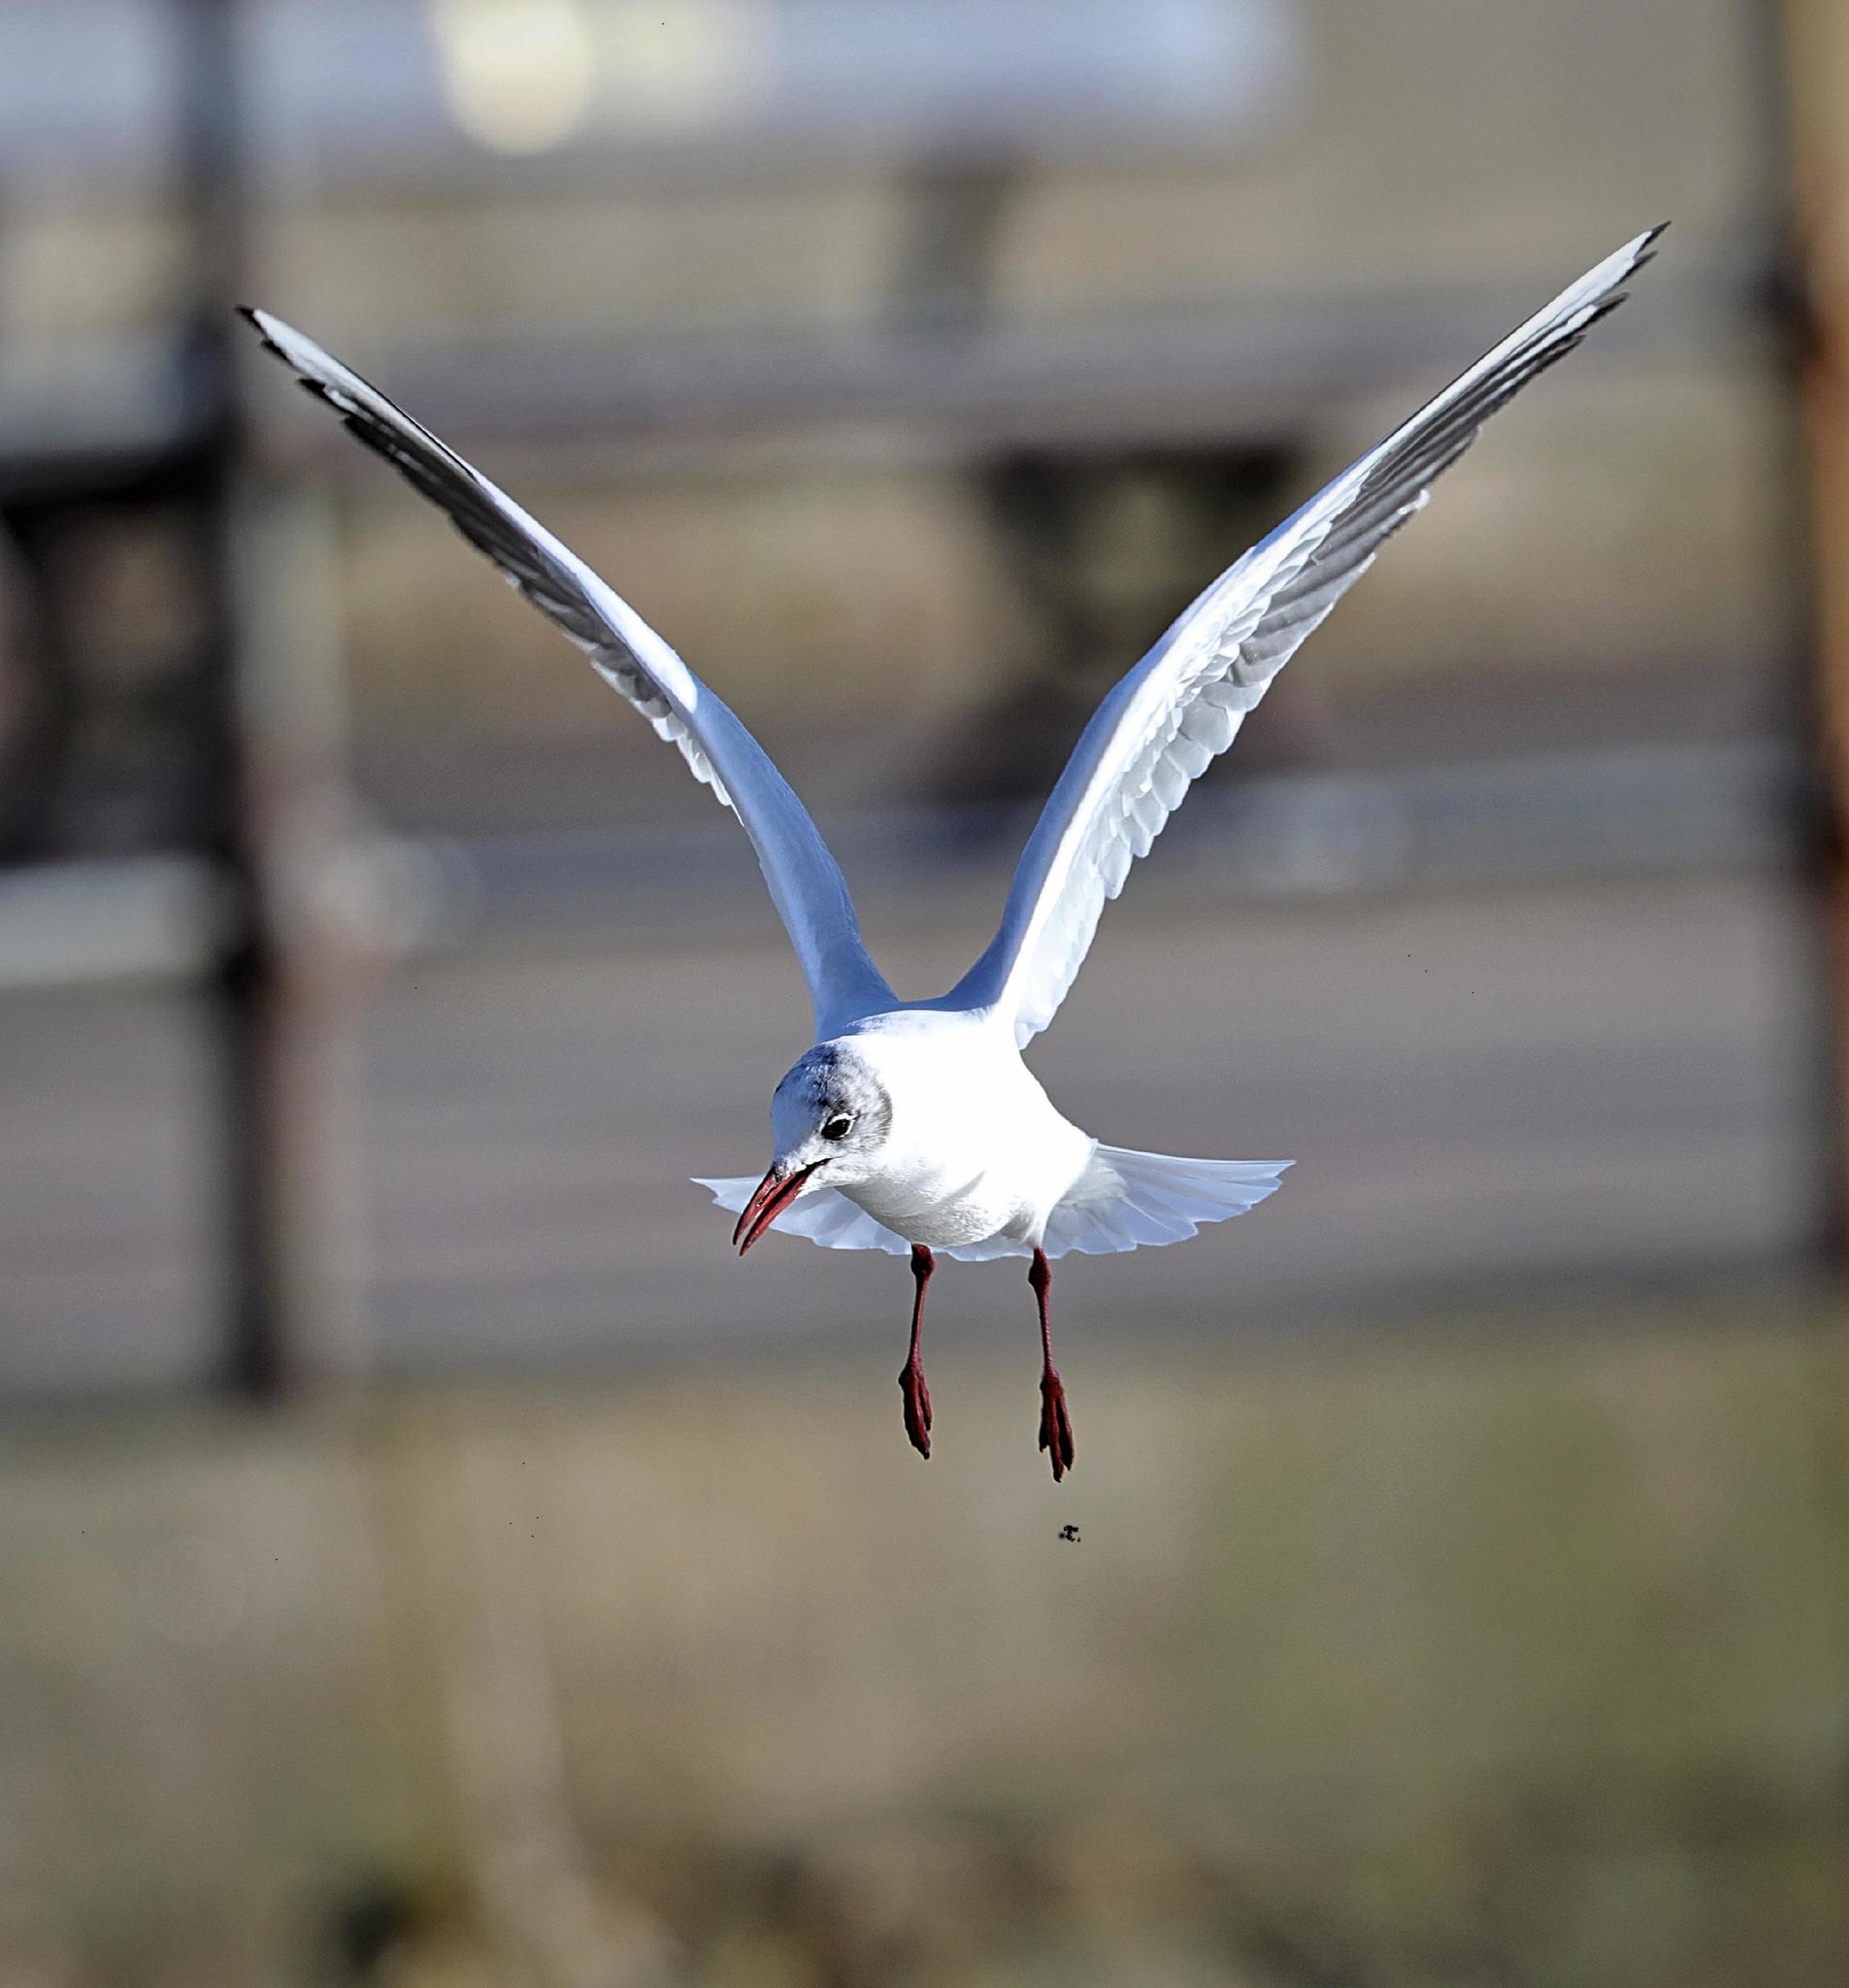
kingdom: Animalia
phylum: Chordata
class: Aves
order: Charadriiformes
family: Laridae
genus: Chroicocephalus
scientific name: Chroicocephalus ridibundus
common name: Black-headed gull
